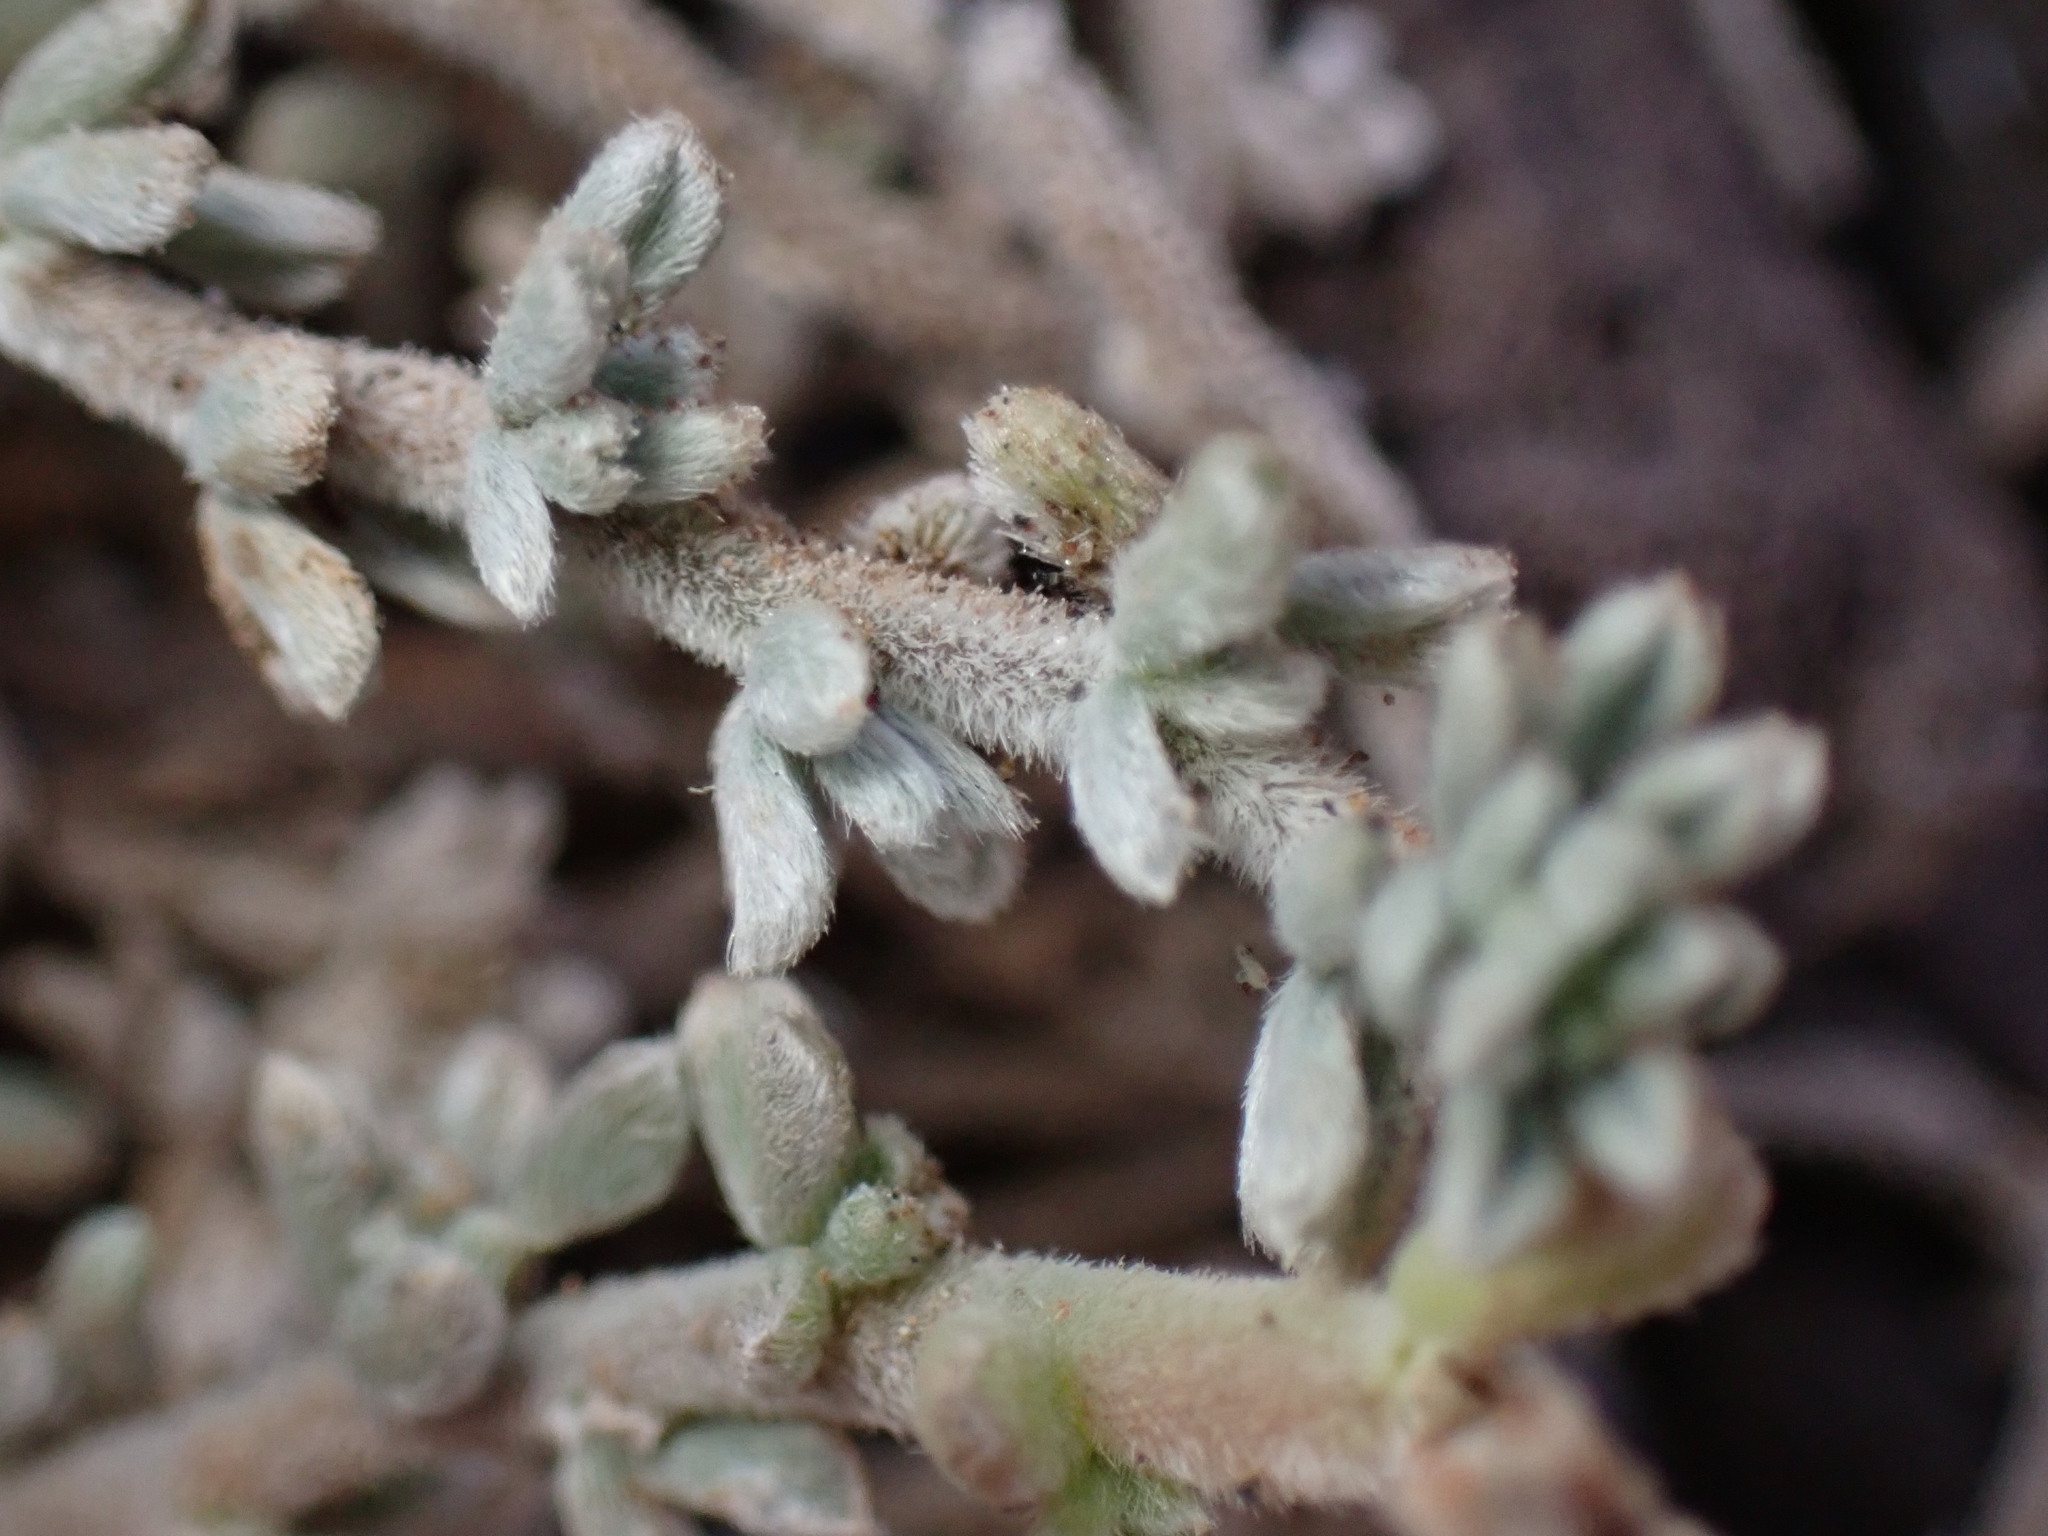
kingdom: Plantae
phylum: Tracheophyta
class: Magnoliopsida
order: Fabales
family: Fabaceae
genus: Lotus
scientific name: Lotus sessilifolius
